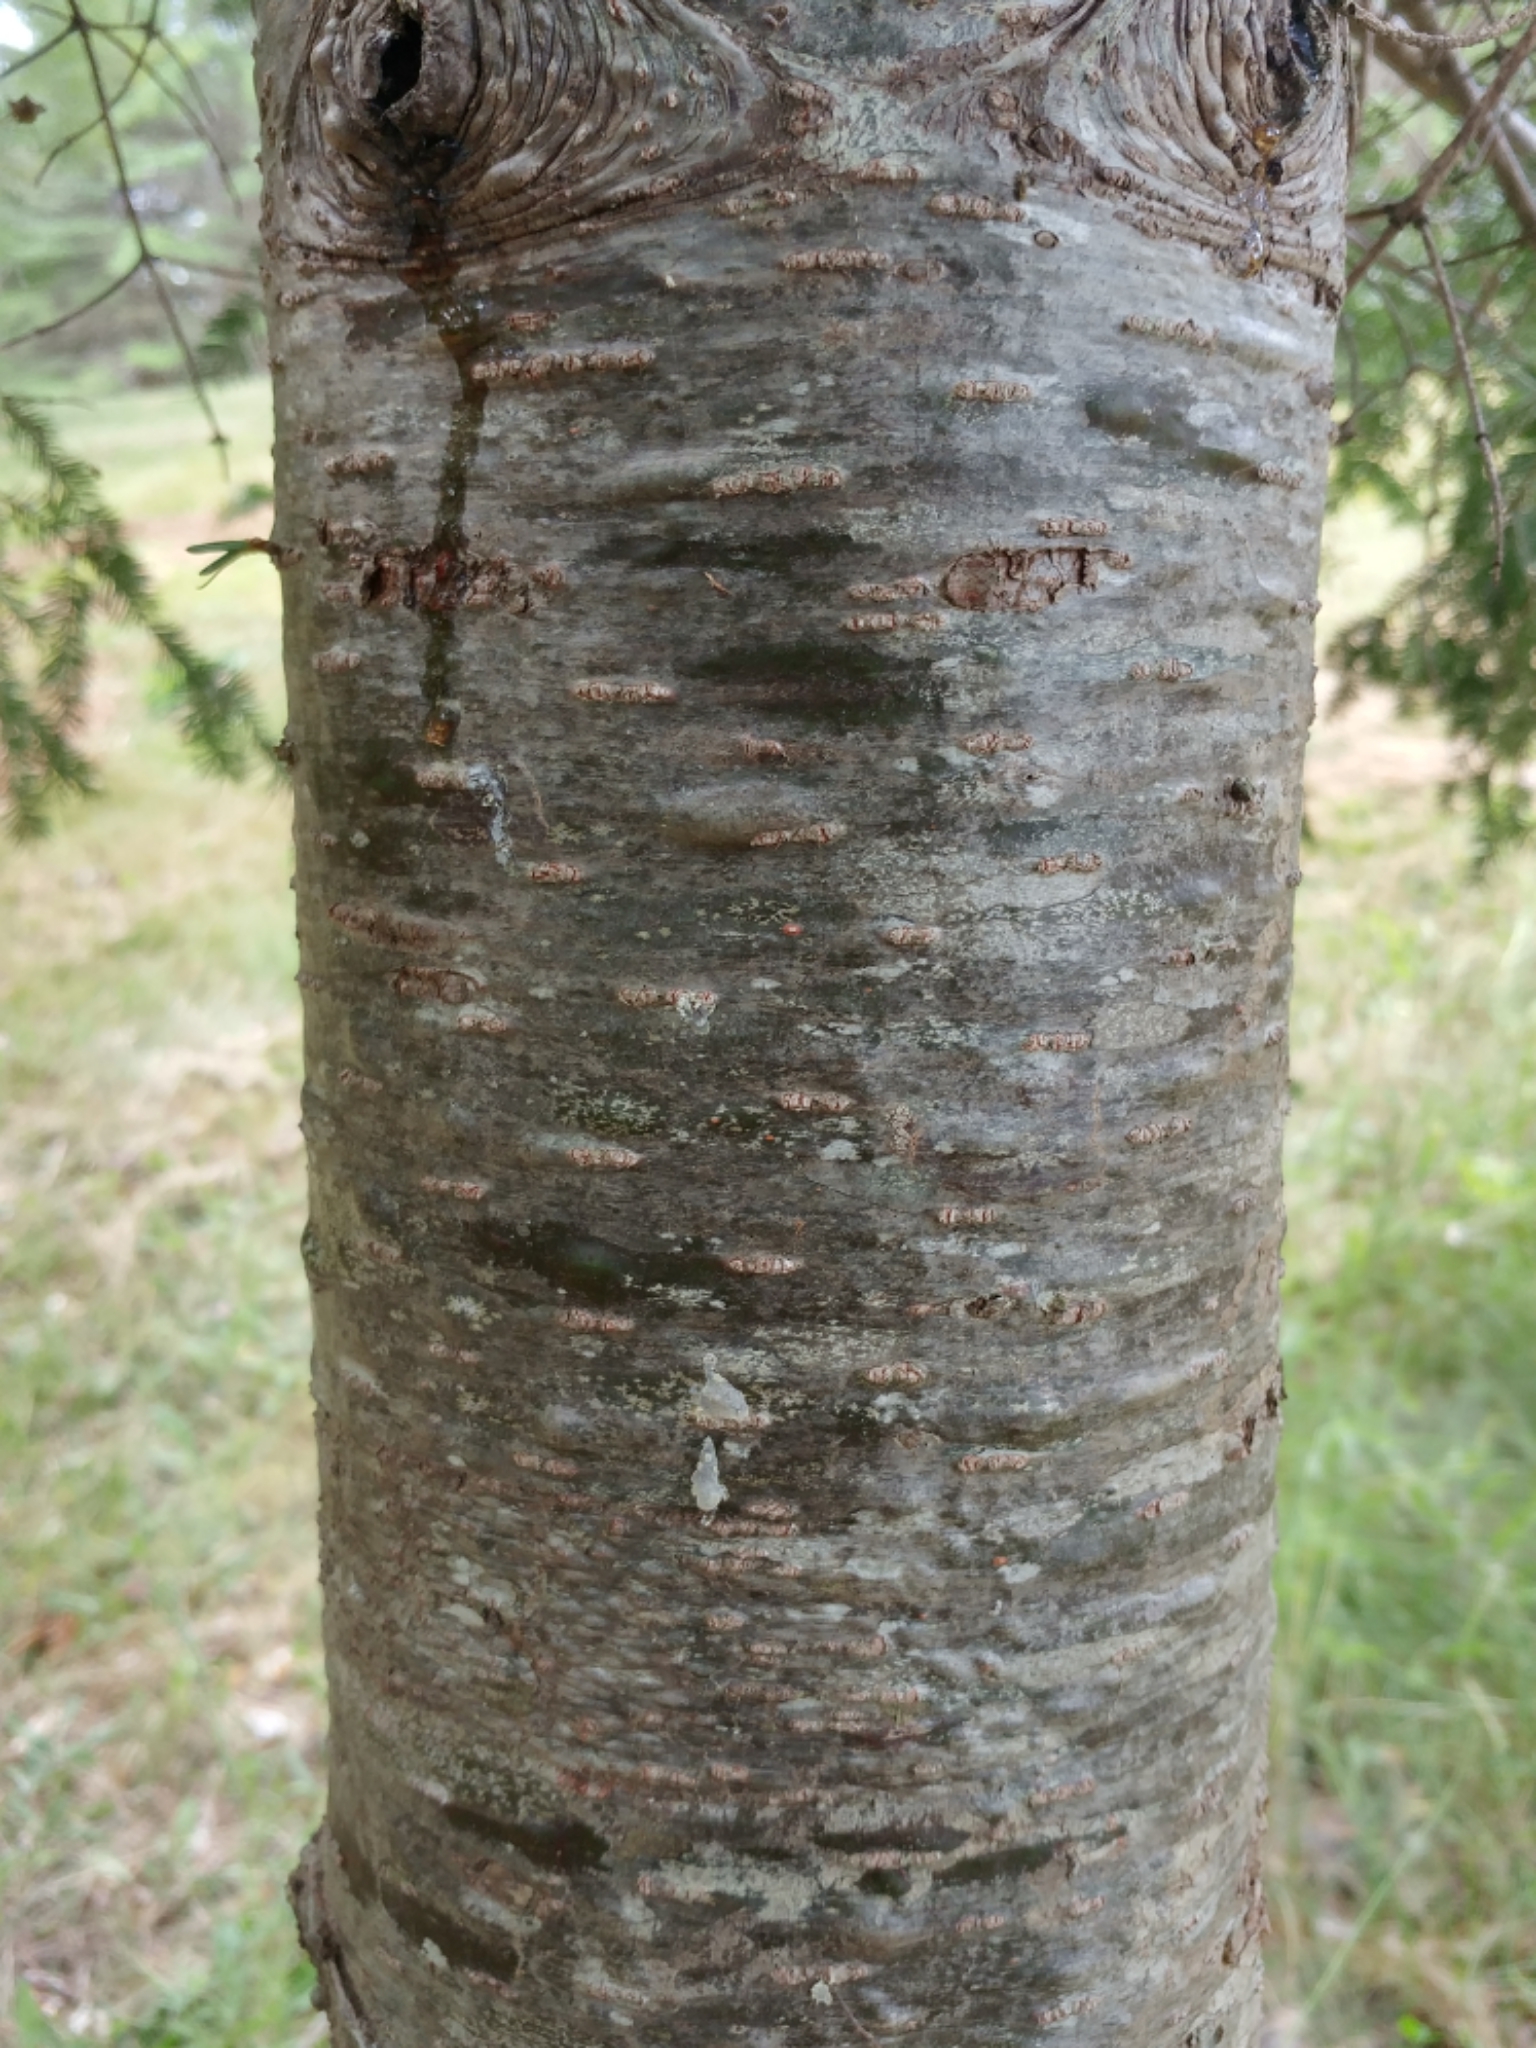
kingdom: Plantae
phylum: Tracheophyta
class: Pinopsida
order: Pinales
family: Pinaceae
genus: Abies
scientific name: Abies balsamea
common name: Balsam fir
